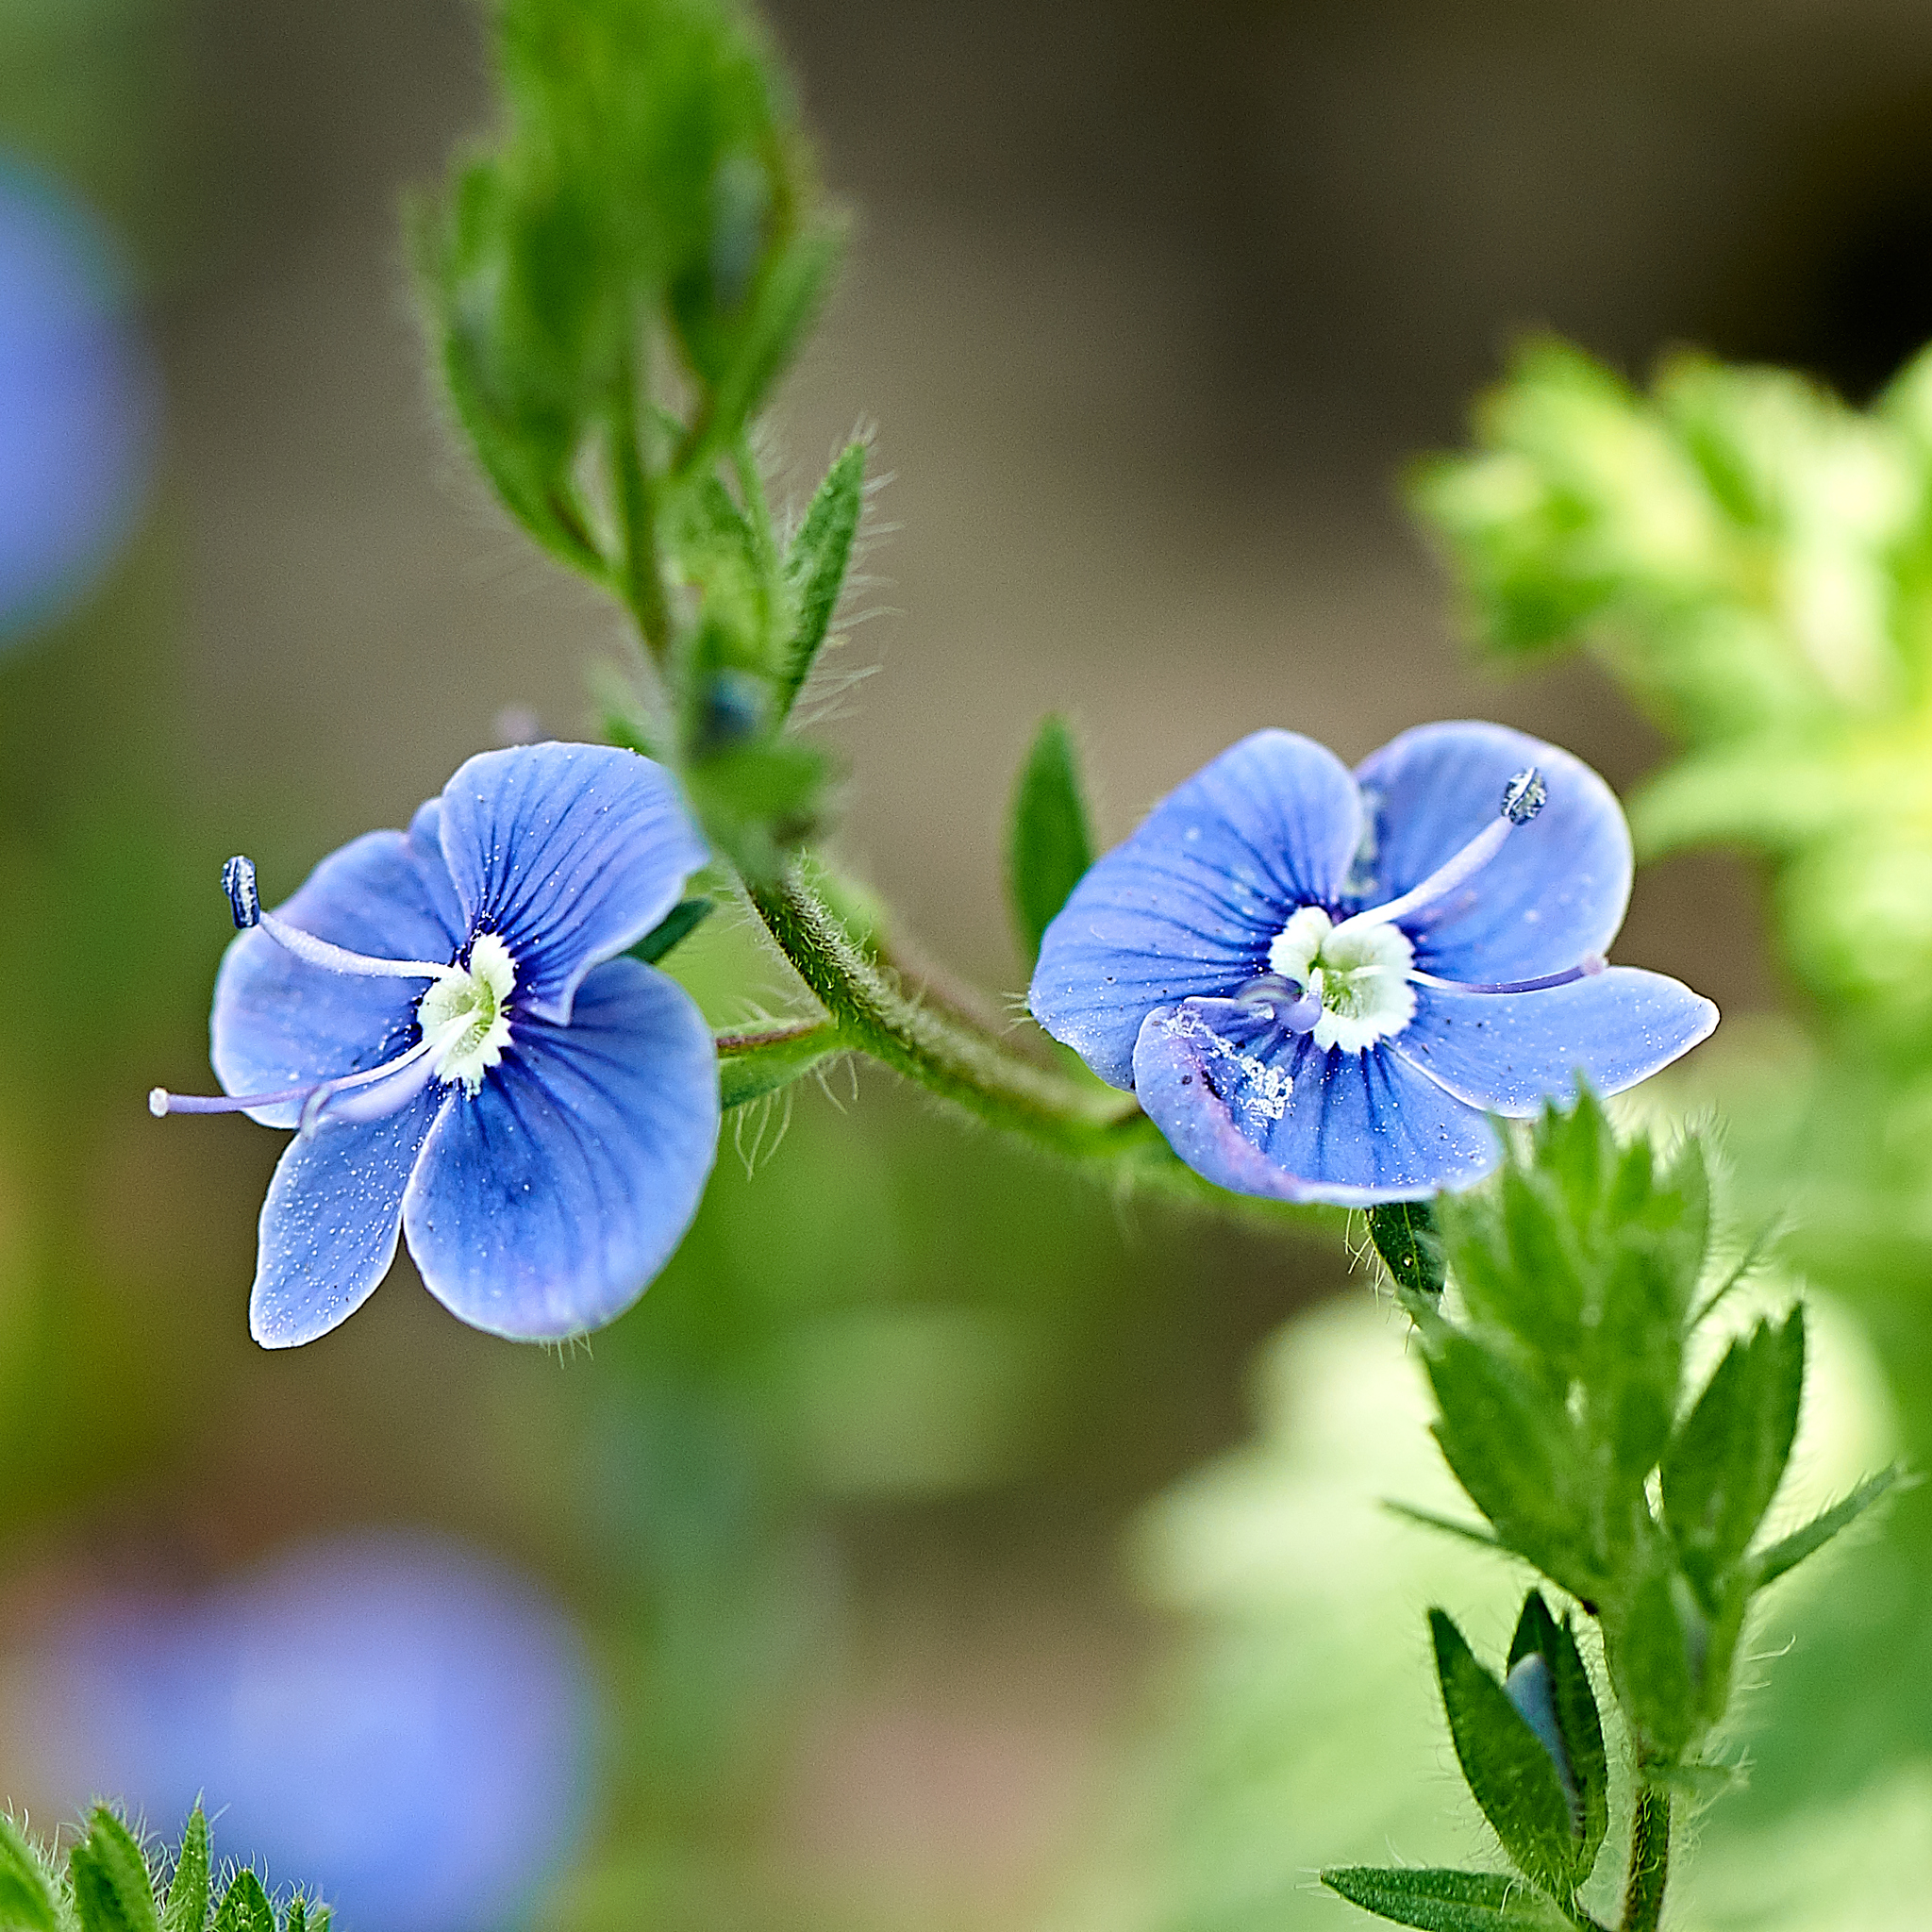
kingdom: Plantae
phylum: Tracheophyta
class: Magnoliopsida
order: Lamiales
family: Plantaginaceae
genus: Veronica
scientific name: Veronica chamaedrys
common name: Germander speedwell
